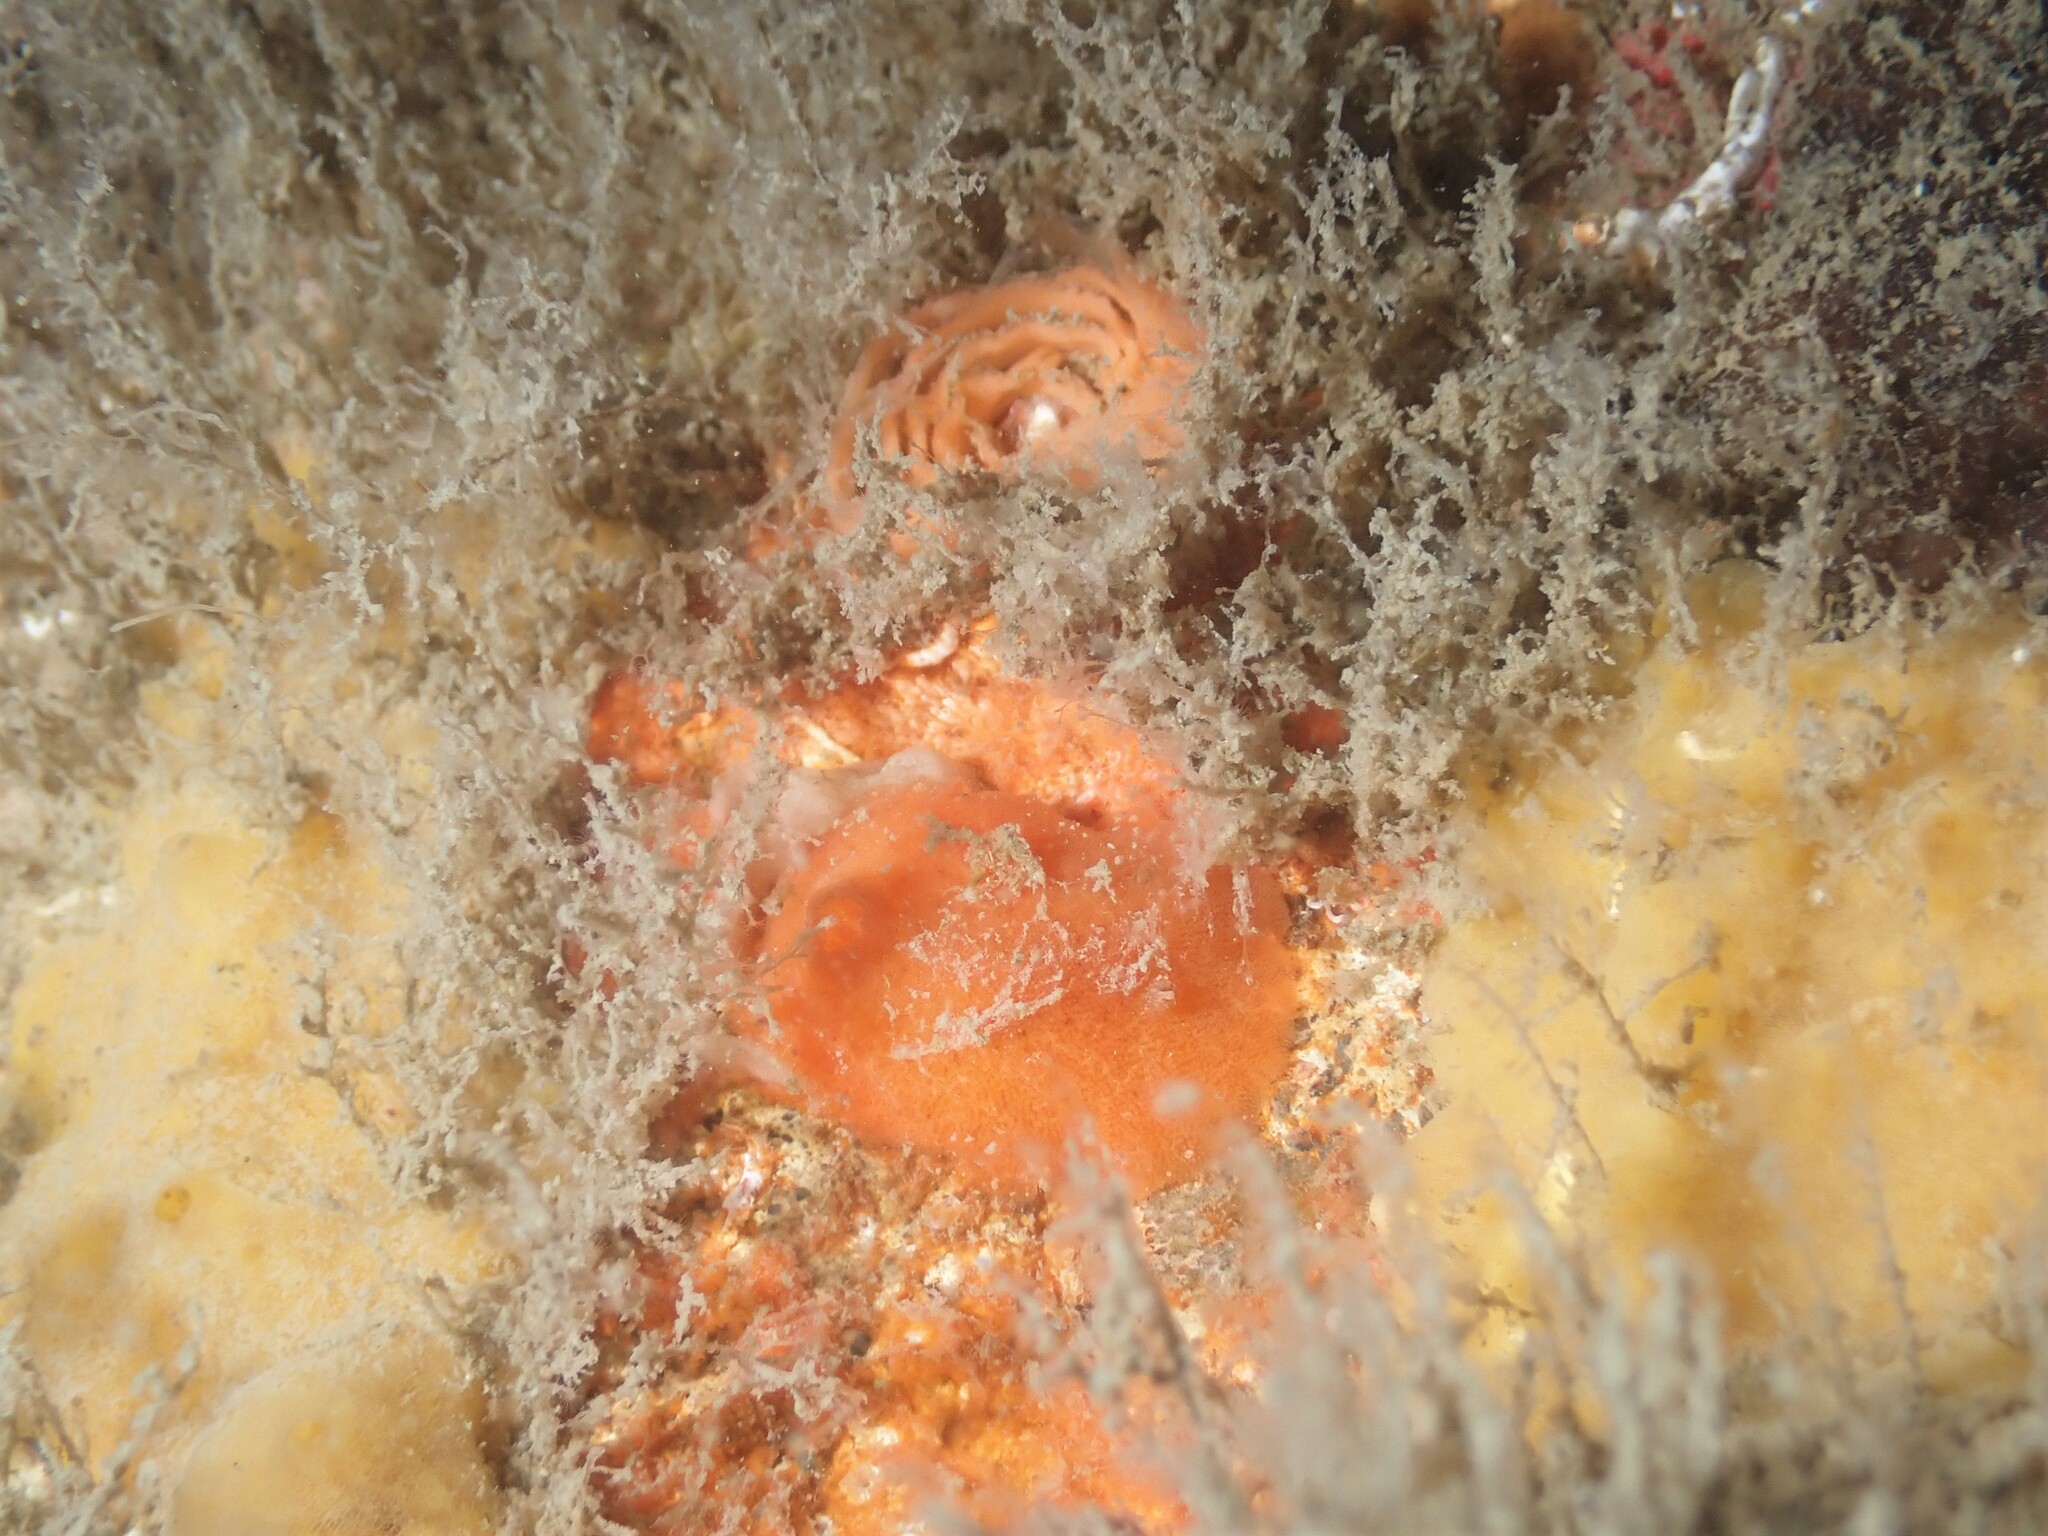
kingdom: Animalia
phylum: Mollusca
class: Gastropoda
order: Nudibranchia
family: Discodorididae
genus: Rostanga
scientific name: Rostanga muscula
